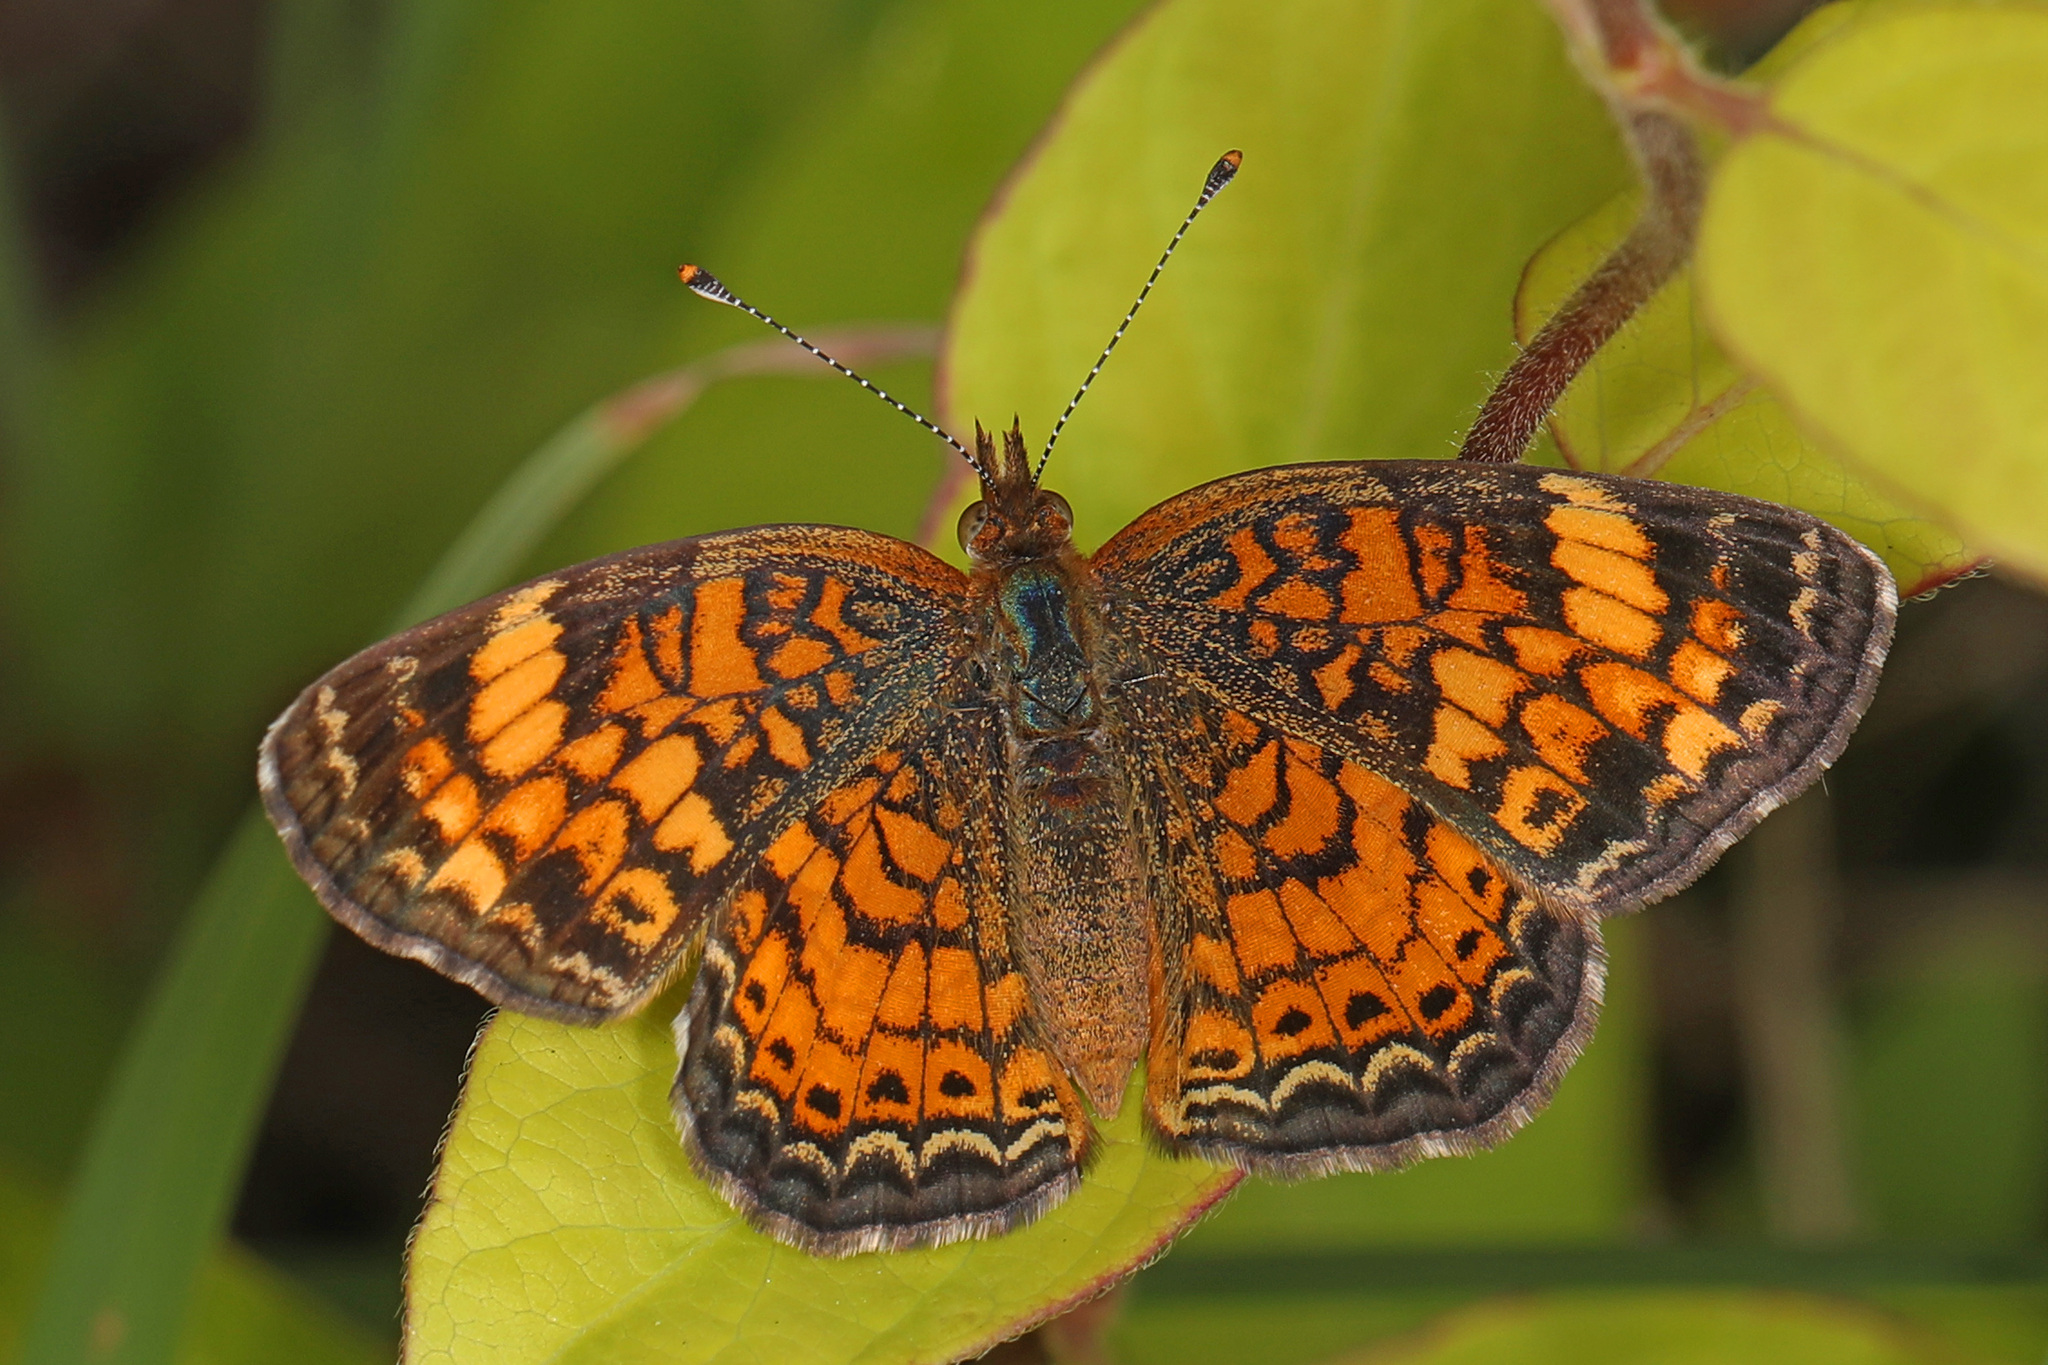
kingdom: Animalia
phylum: Arthropoda
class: Insecta
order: Lepidoptera
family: Nymphalidae
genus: Phyciodes
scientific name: Phyciodes tharos
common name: Pearl crescent
